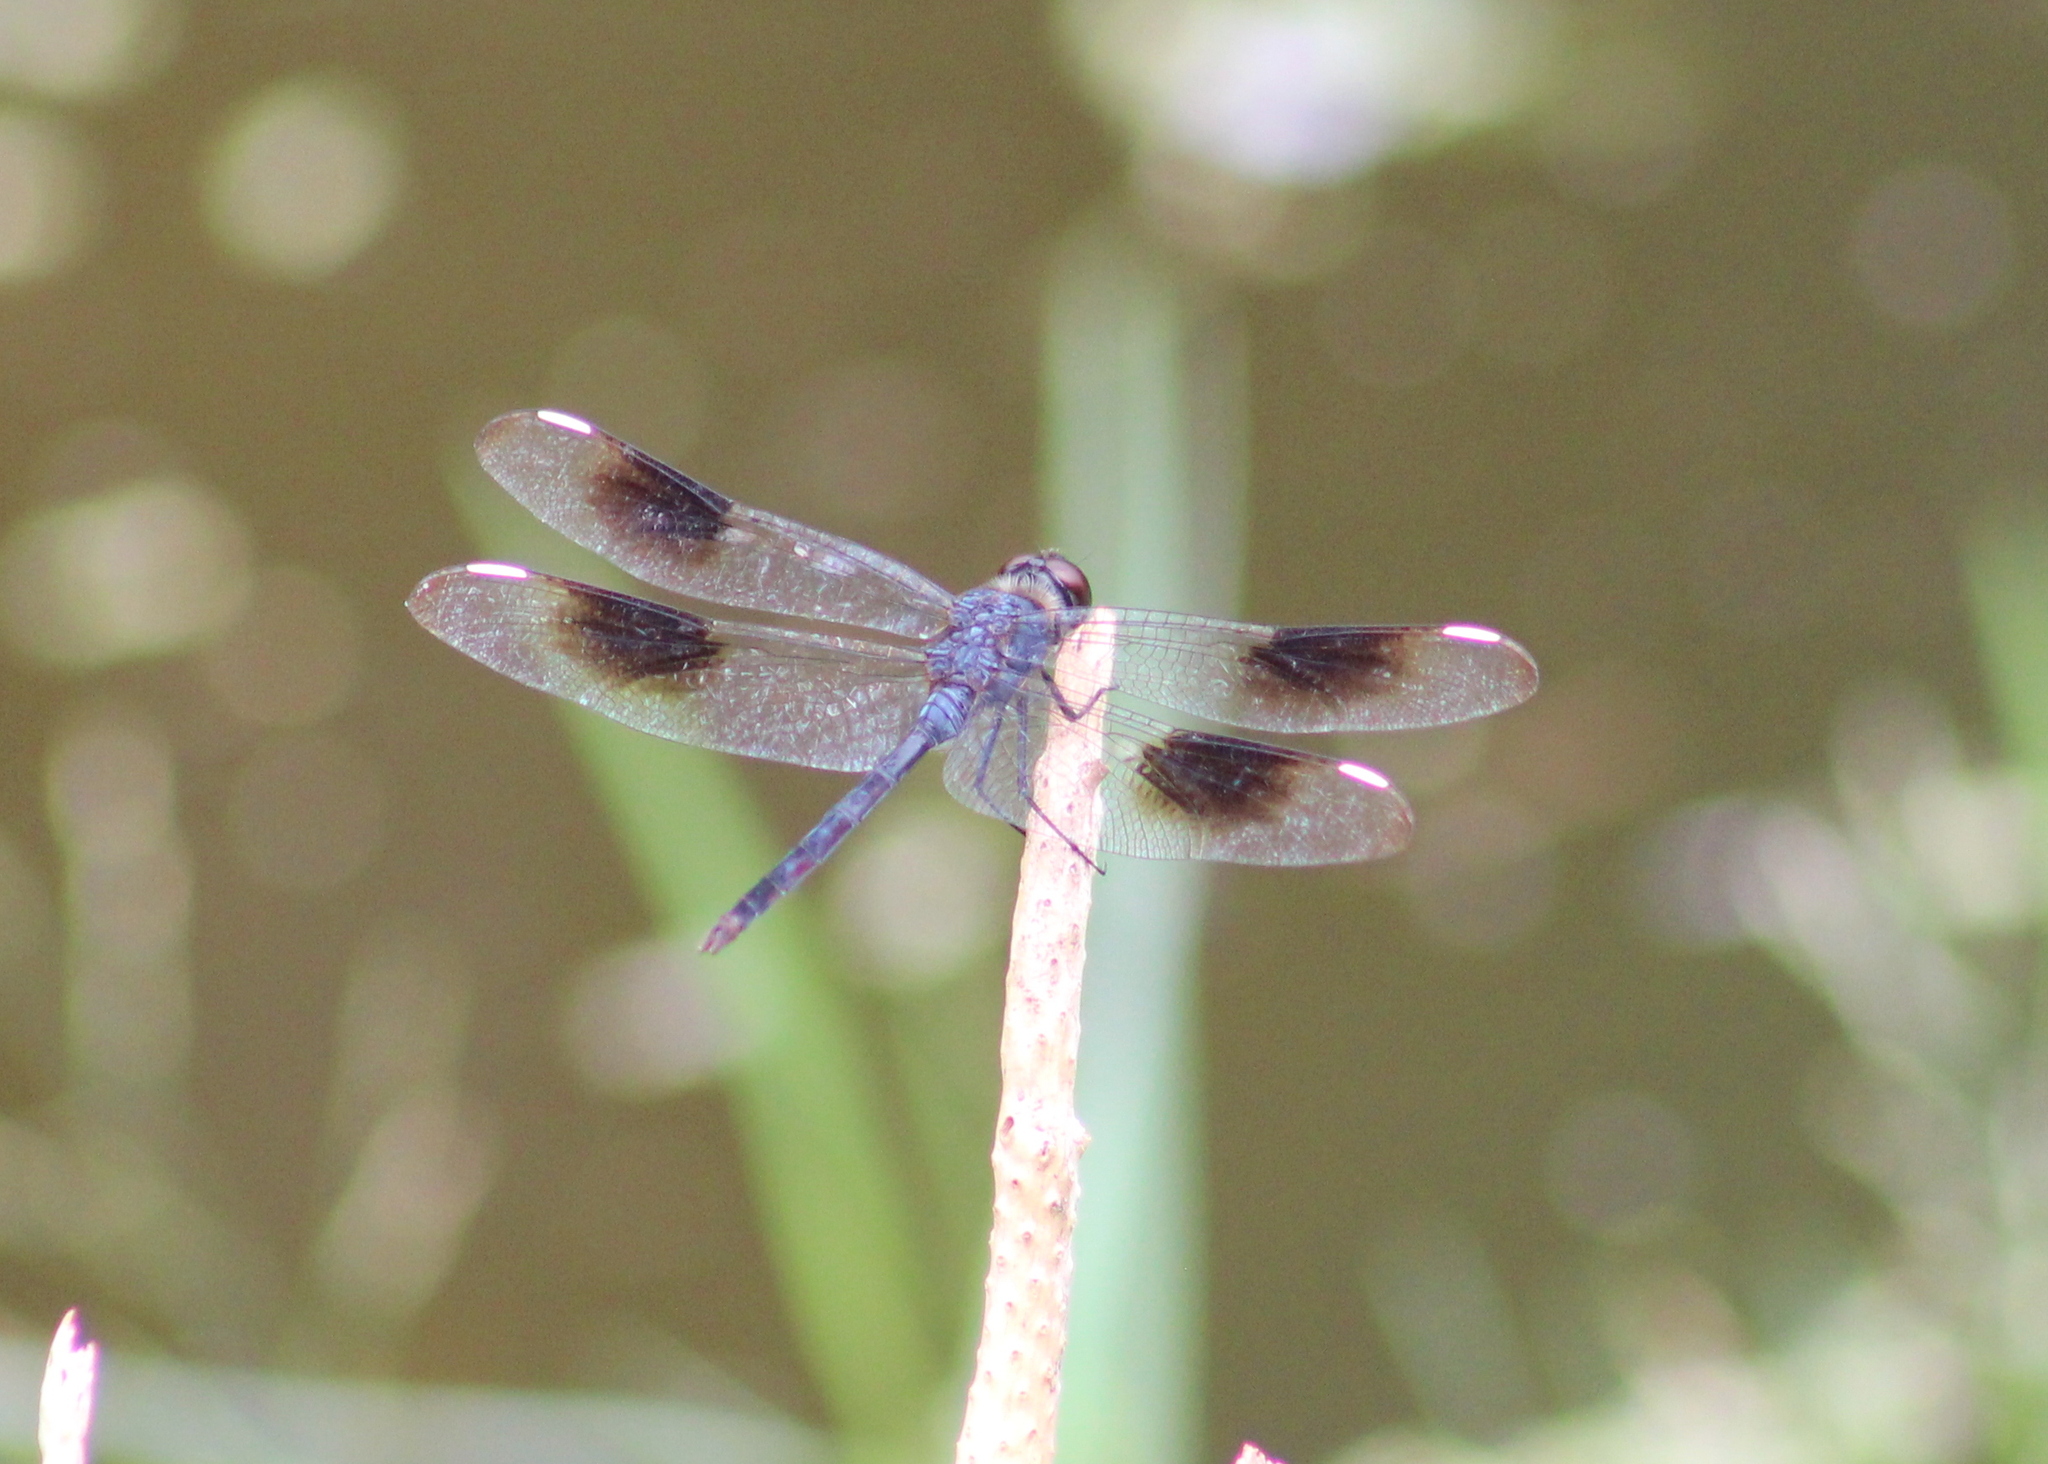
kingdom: Animalia
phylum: Arthropoda
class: Insecta
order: Odonata
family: Libellulidae
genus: Brachymesia
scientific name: Brachymesia gravida
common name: Four-spotted pennant
